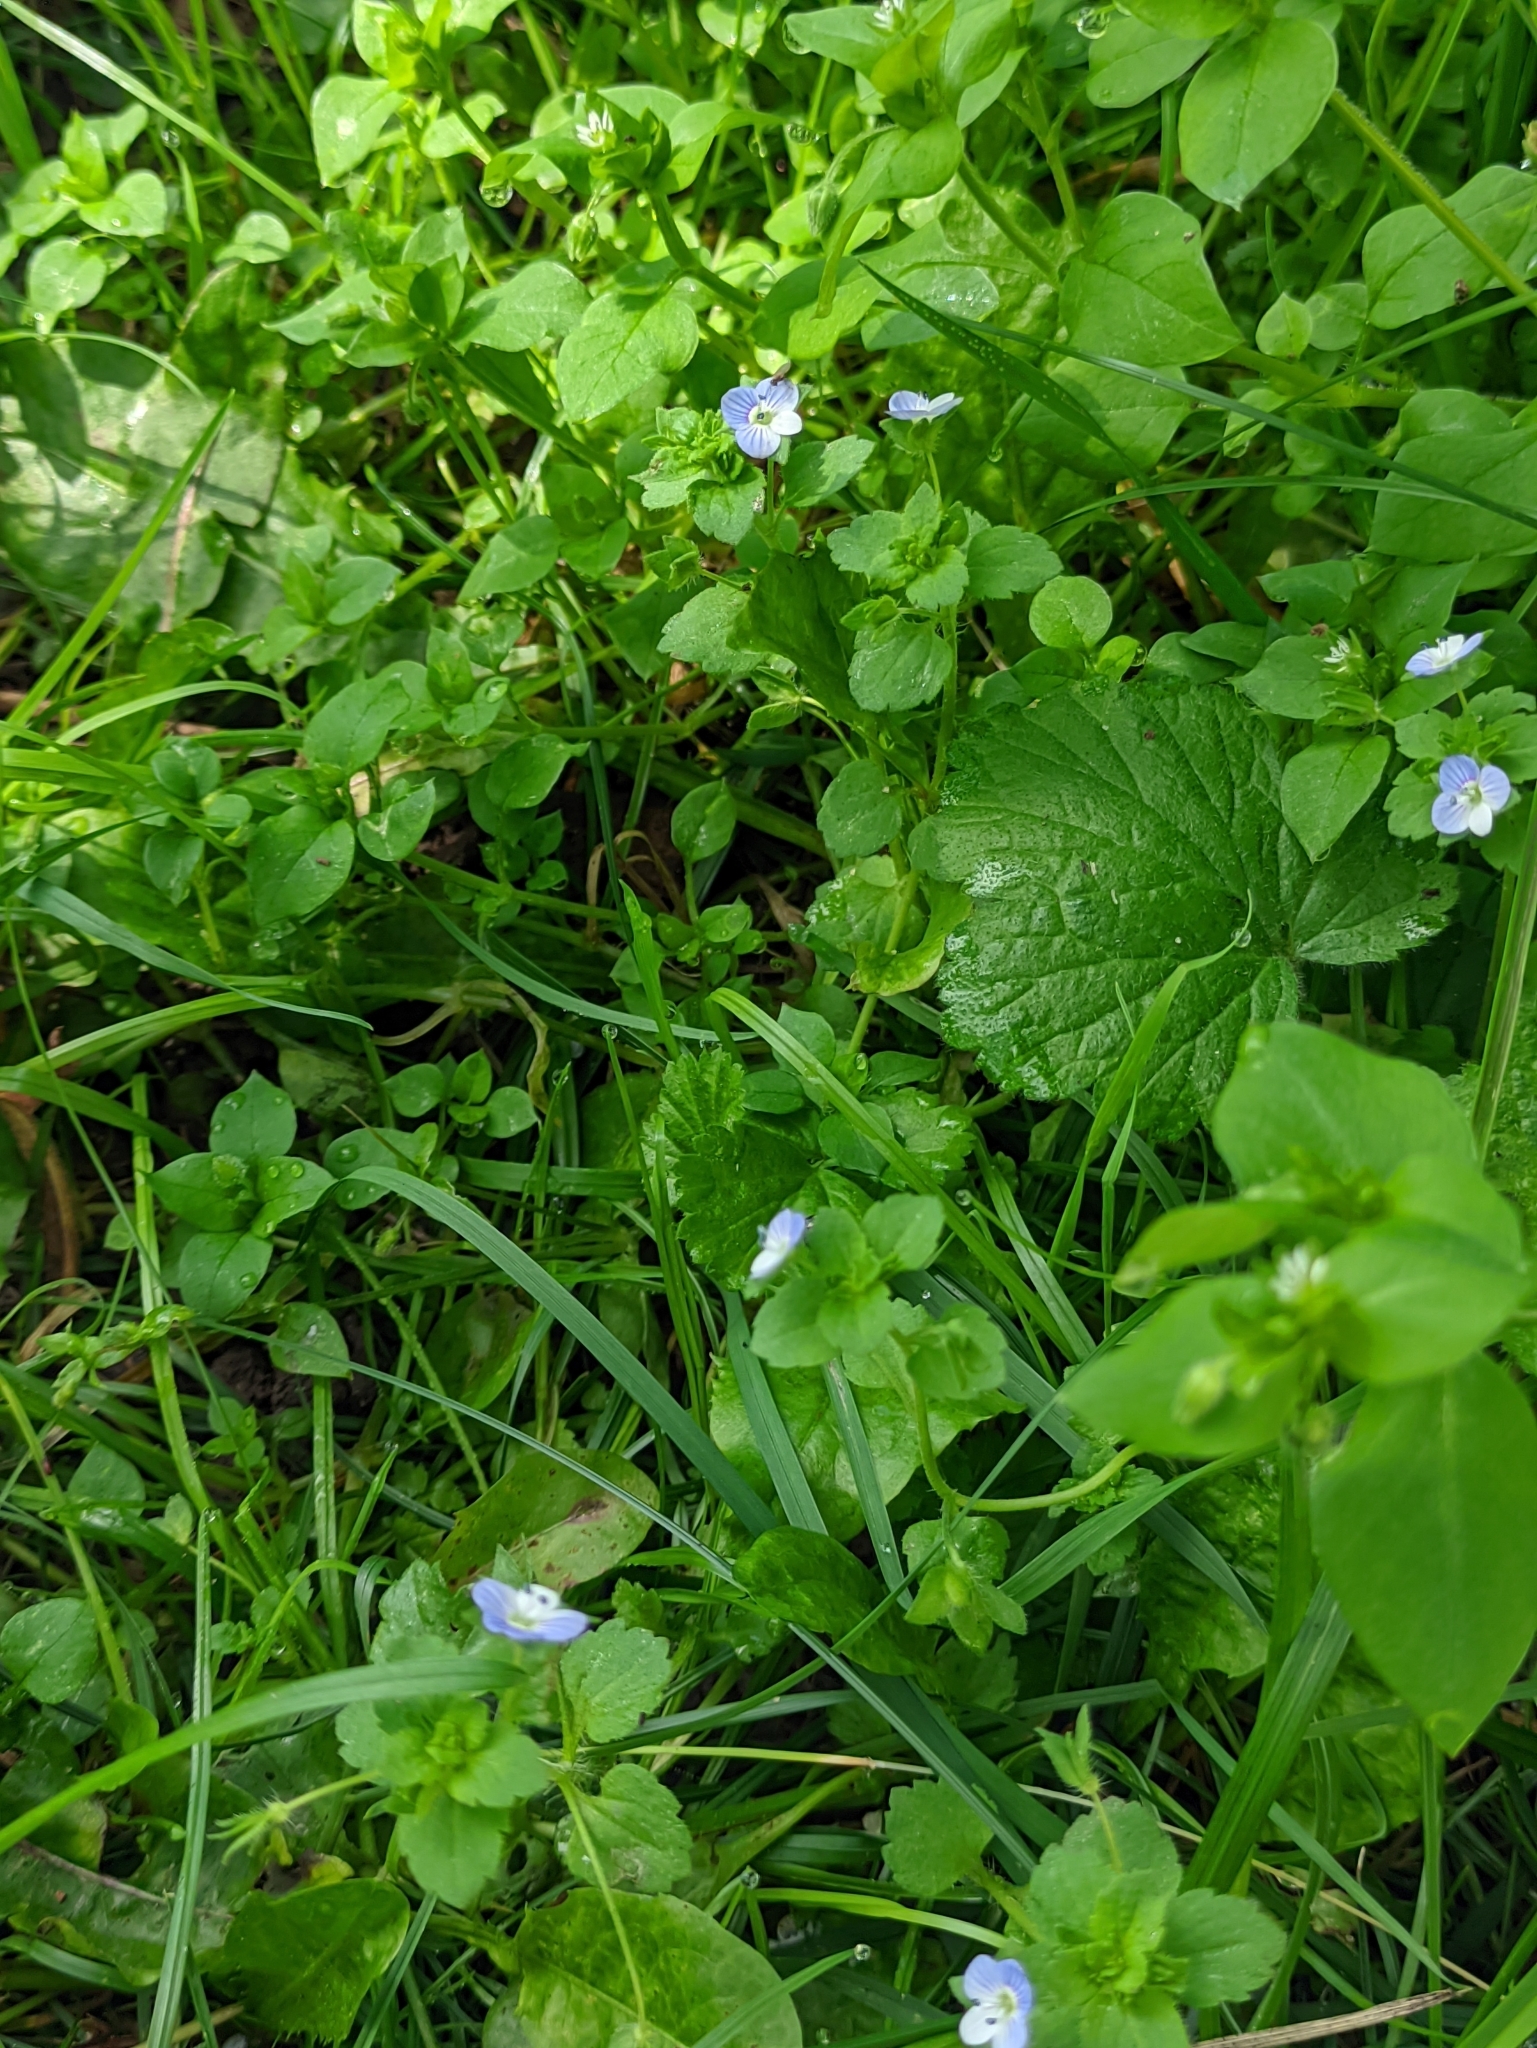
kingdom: Plantae
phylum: Tracheophyta
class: Magnoliopsida
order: Lamiales
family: Plantaginaceae
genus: Veronica
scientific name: Veronica persica
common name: Common field-speedwell
